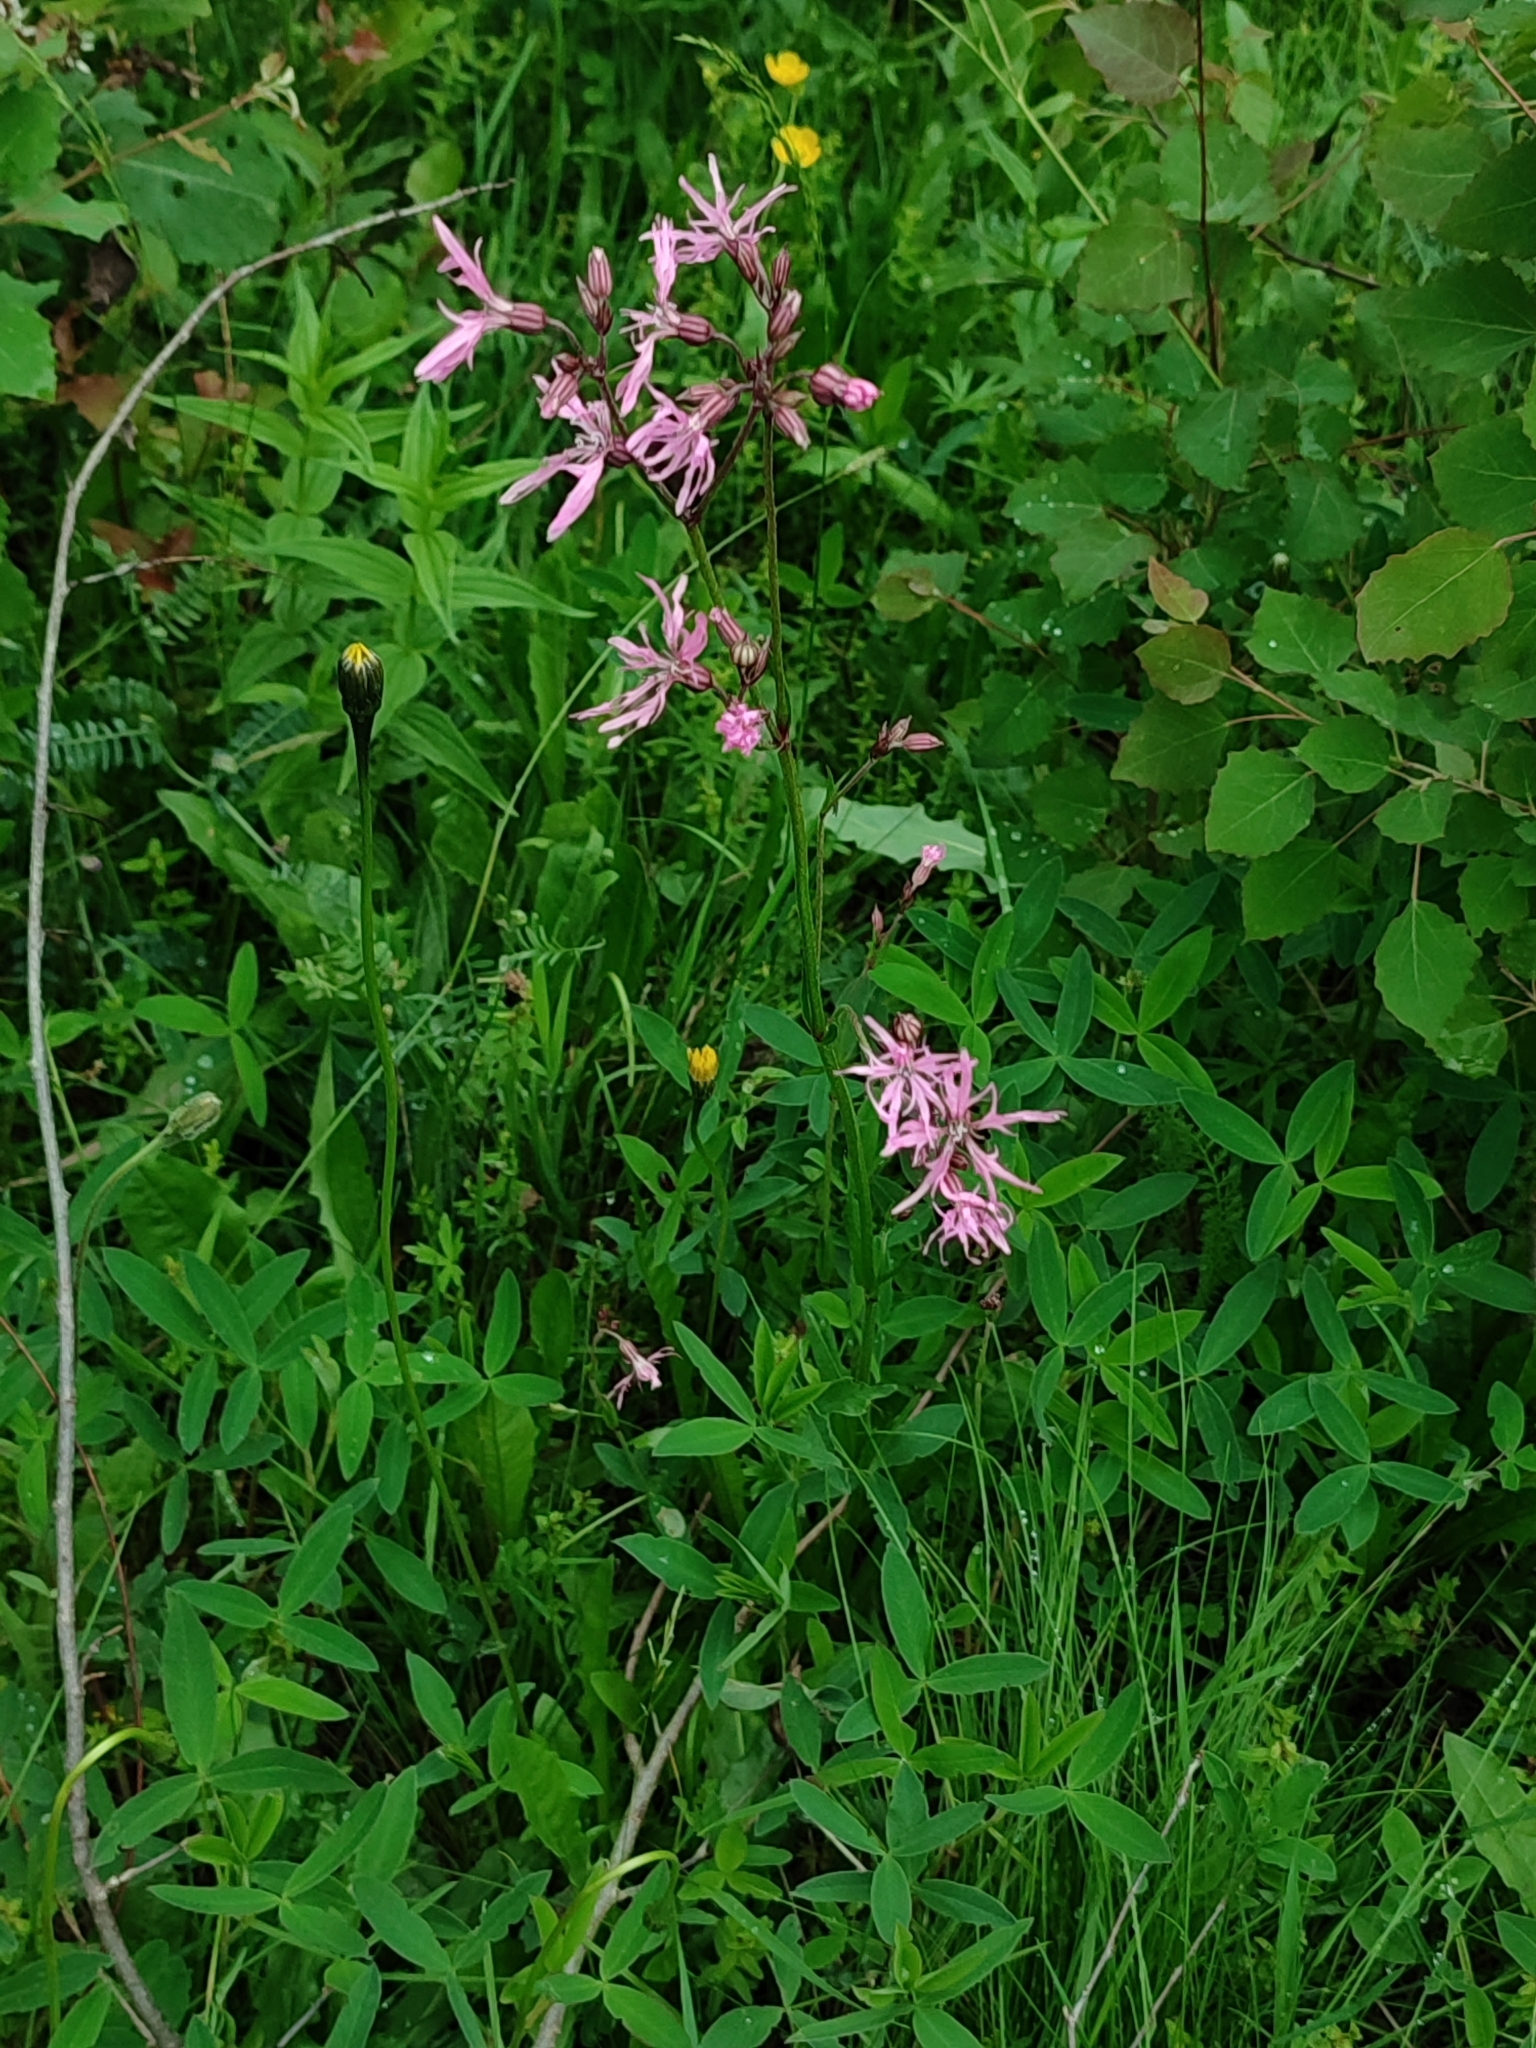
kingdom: Plantae
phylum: Tracheophyta
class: Magnoliopsida
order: Caryophyllales
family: Caryophyllaceae
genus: Silene
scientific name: Silene flos-cuculi
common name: Ragged-robin
